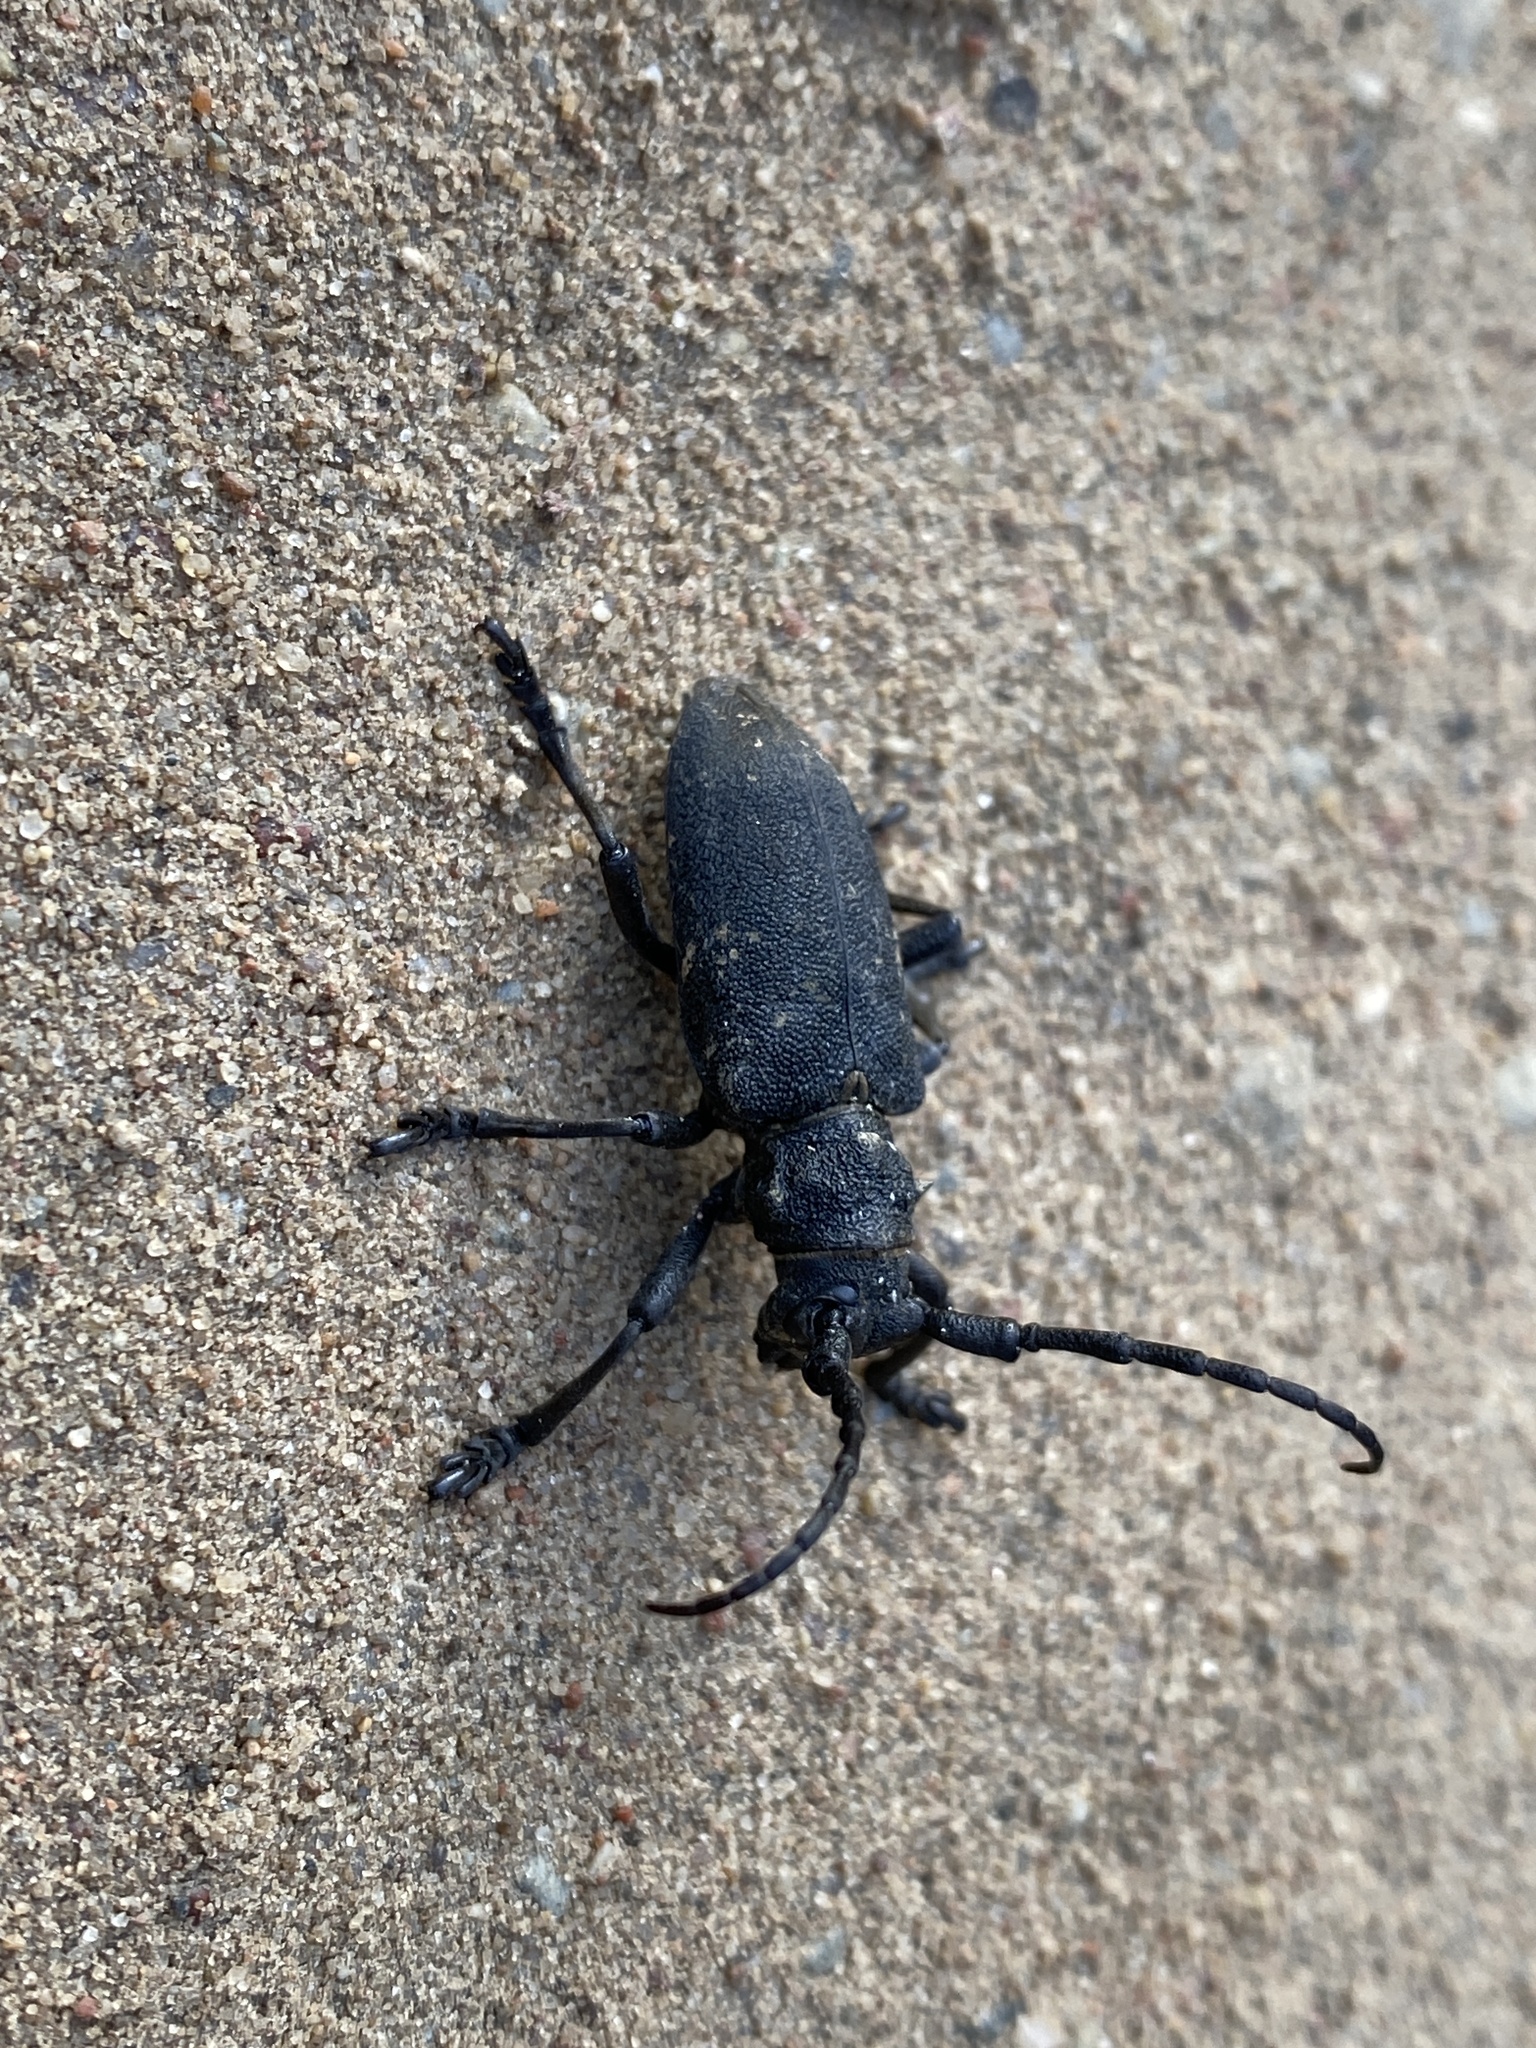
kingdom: Animalia
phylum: Arthropoda
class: Insecta
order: Coleoptera
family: Cerambycidae
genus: Lamia
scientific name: Lamia textor
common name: Weaver beetle
